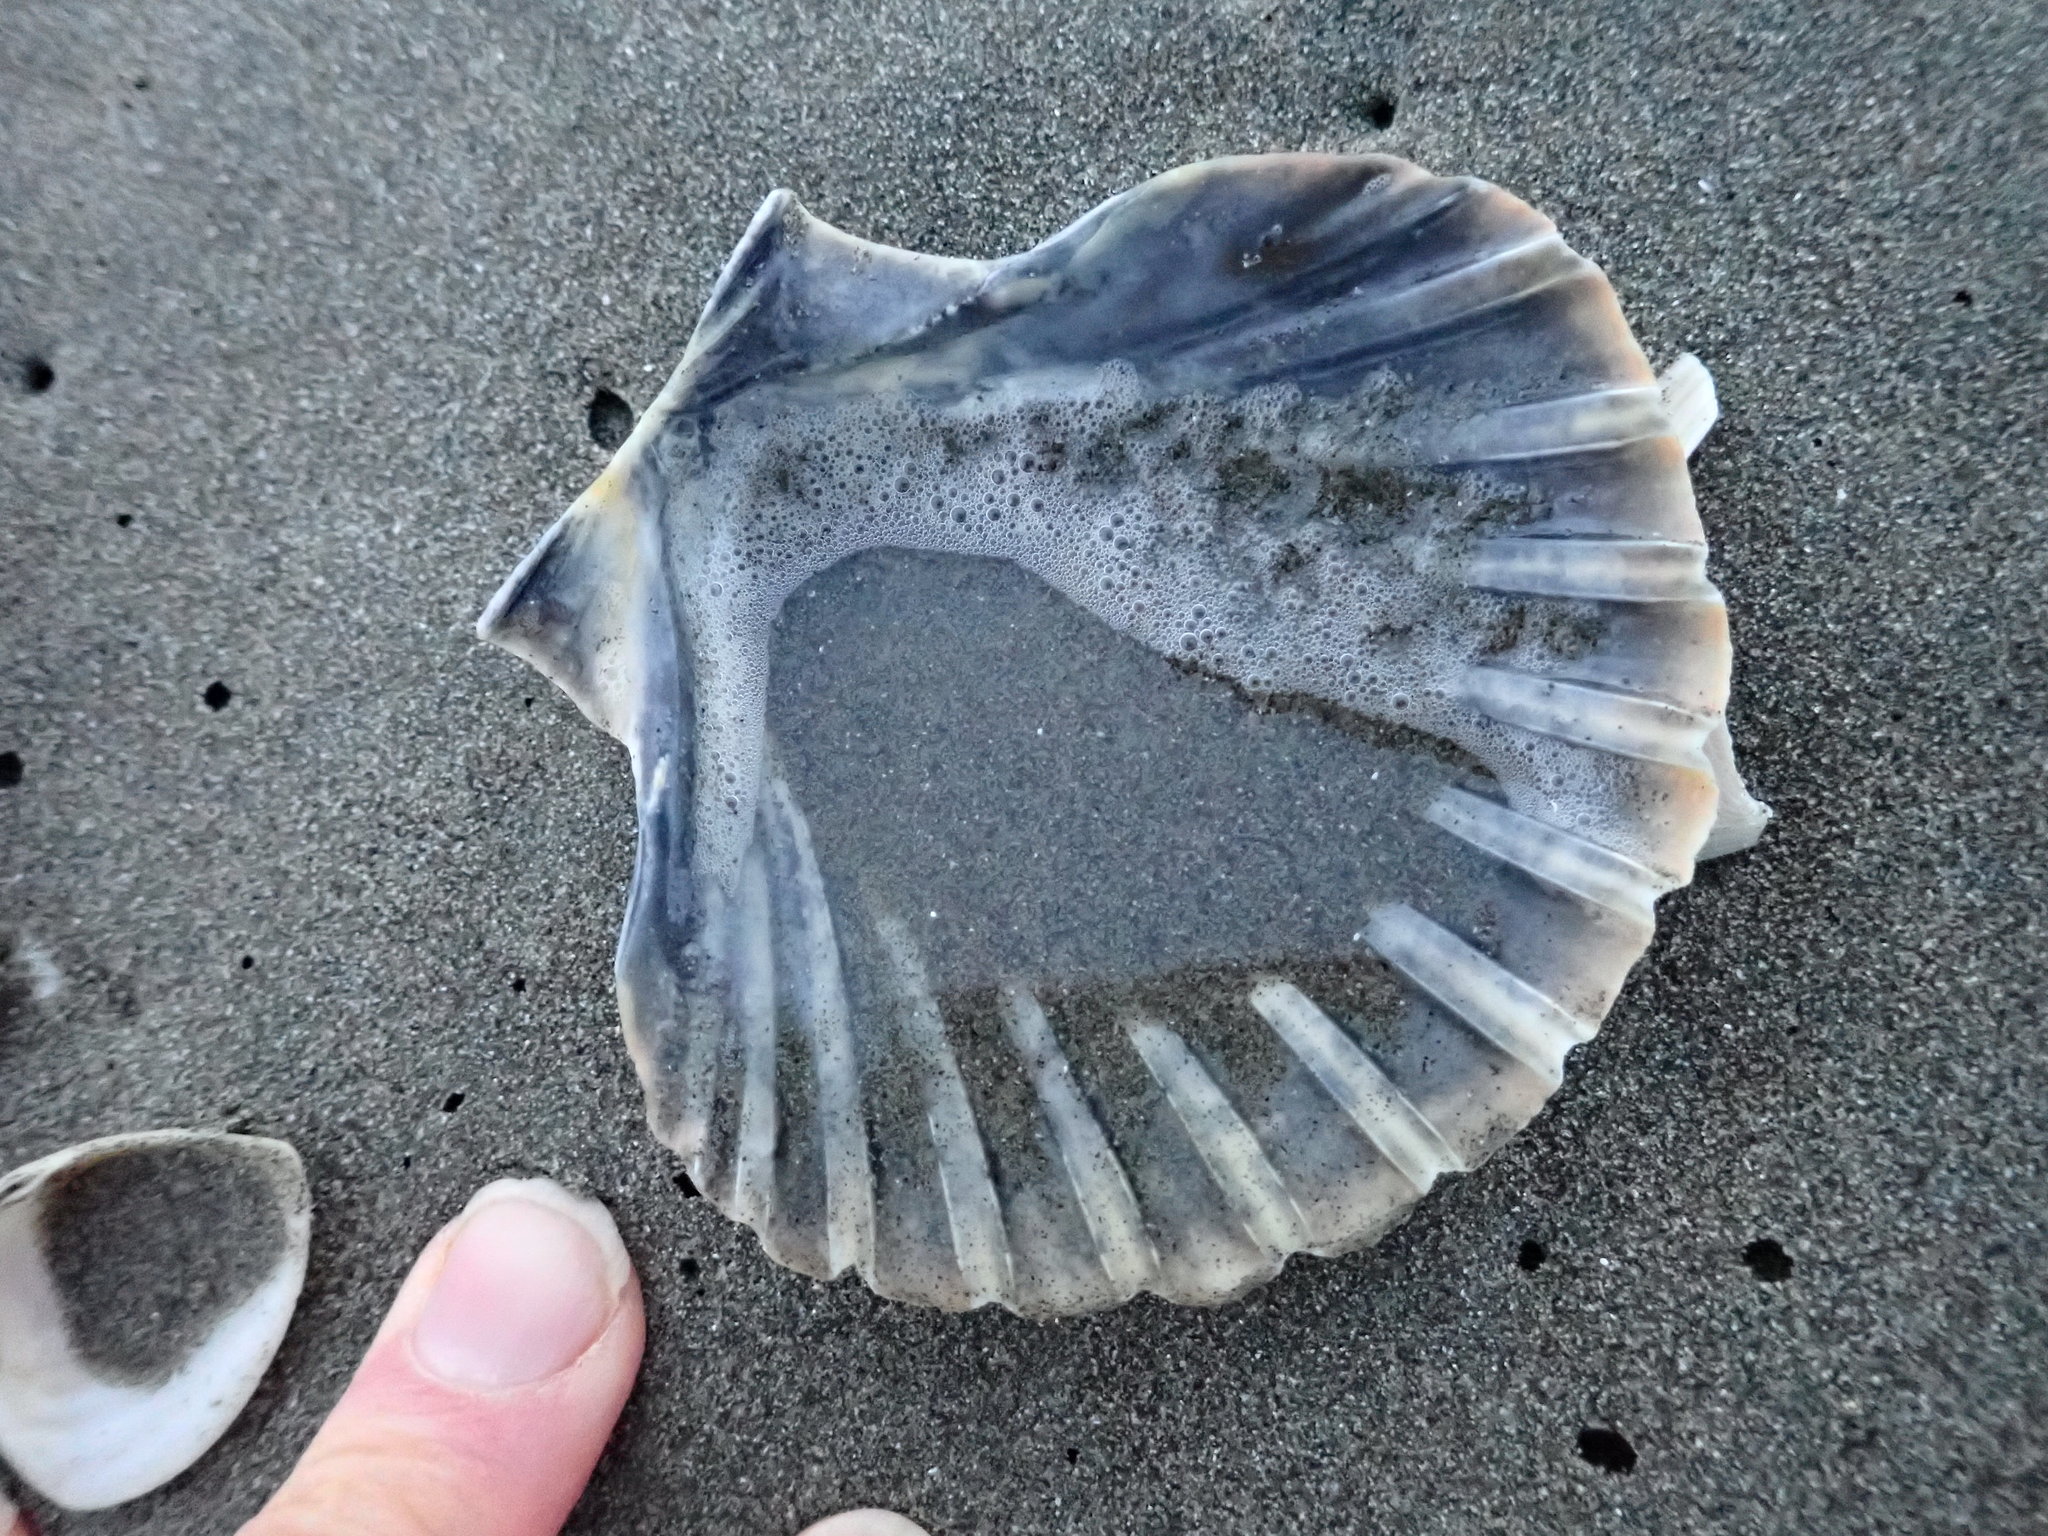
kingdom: Animalia
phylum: Mollusca
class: Bivalvia
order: Pectinida
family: Pectinidae
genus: Pecten
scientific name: Pecten novaezelandiae
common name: New zealand scallop
